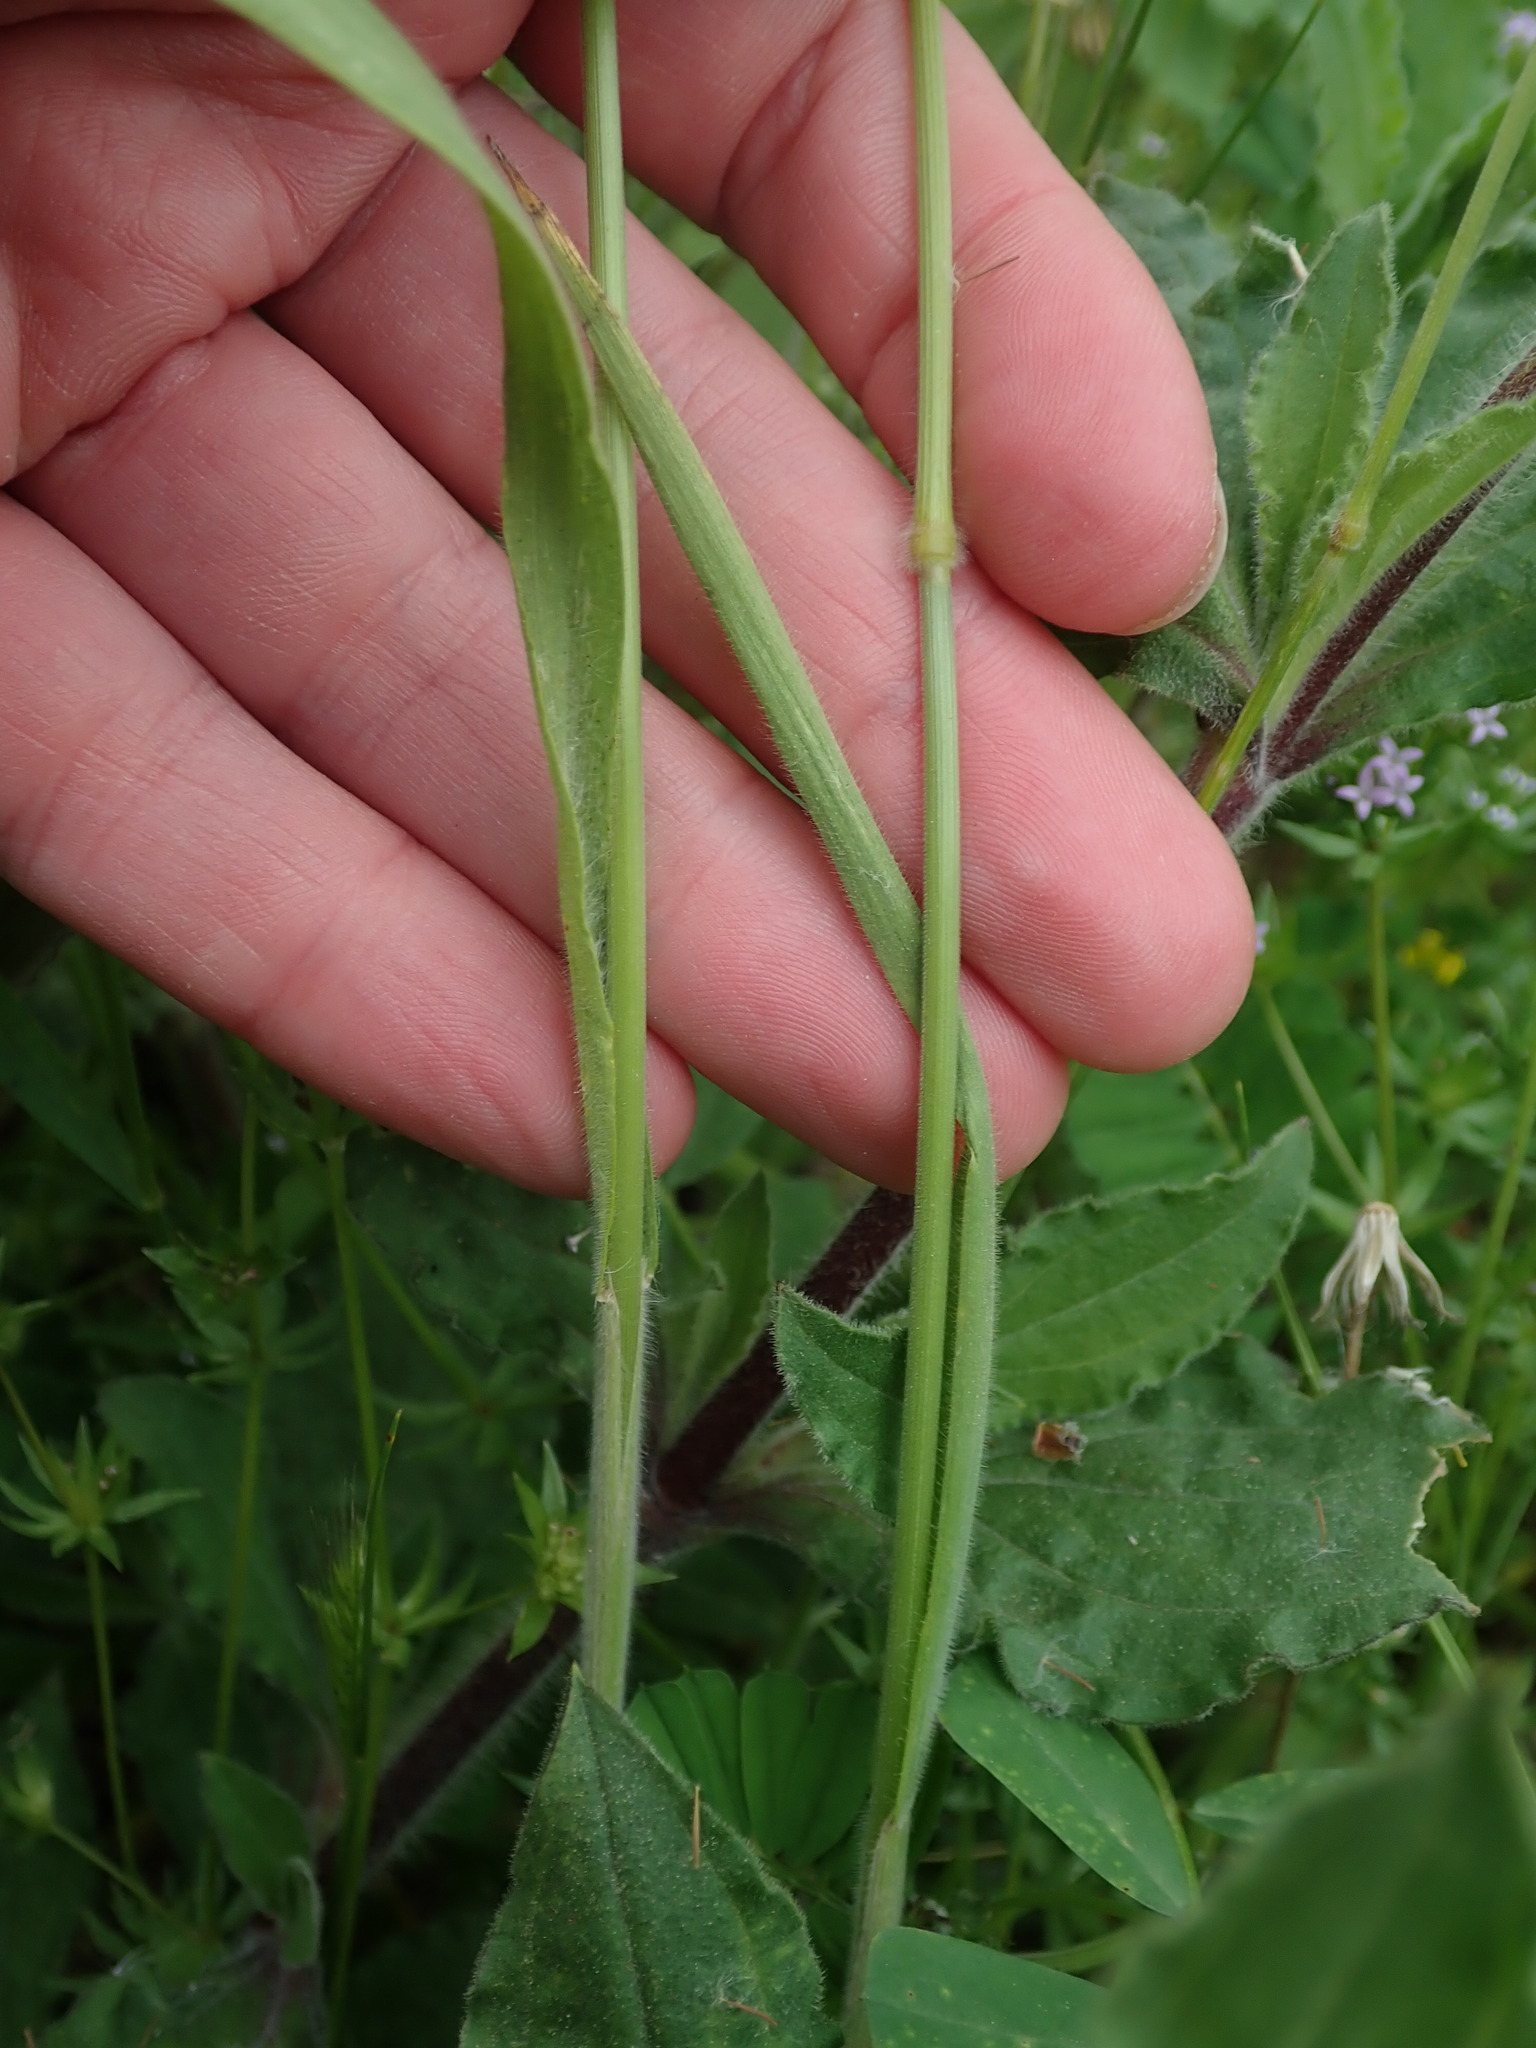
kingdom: Plantae
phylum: Tracheophyta
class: Liliopsida
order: Poales
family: Poaceae
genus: Bromus
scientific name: Bromus hordeaceus
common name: Soft brome
